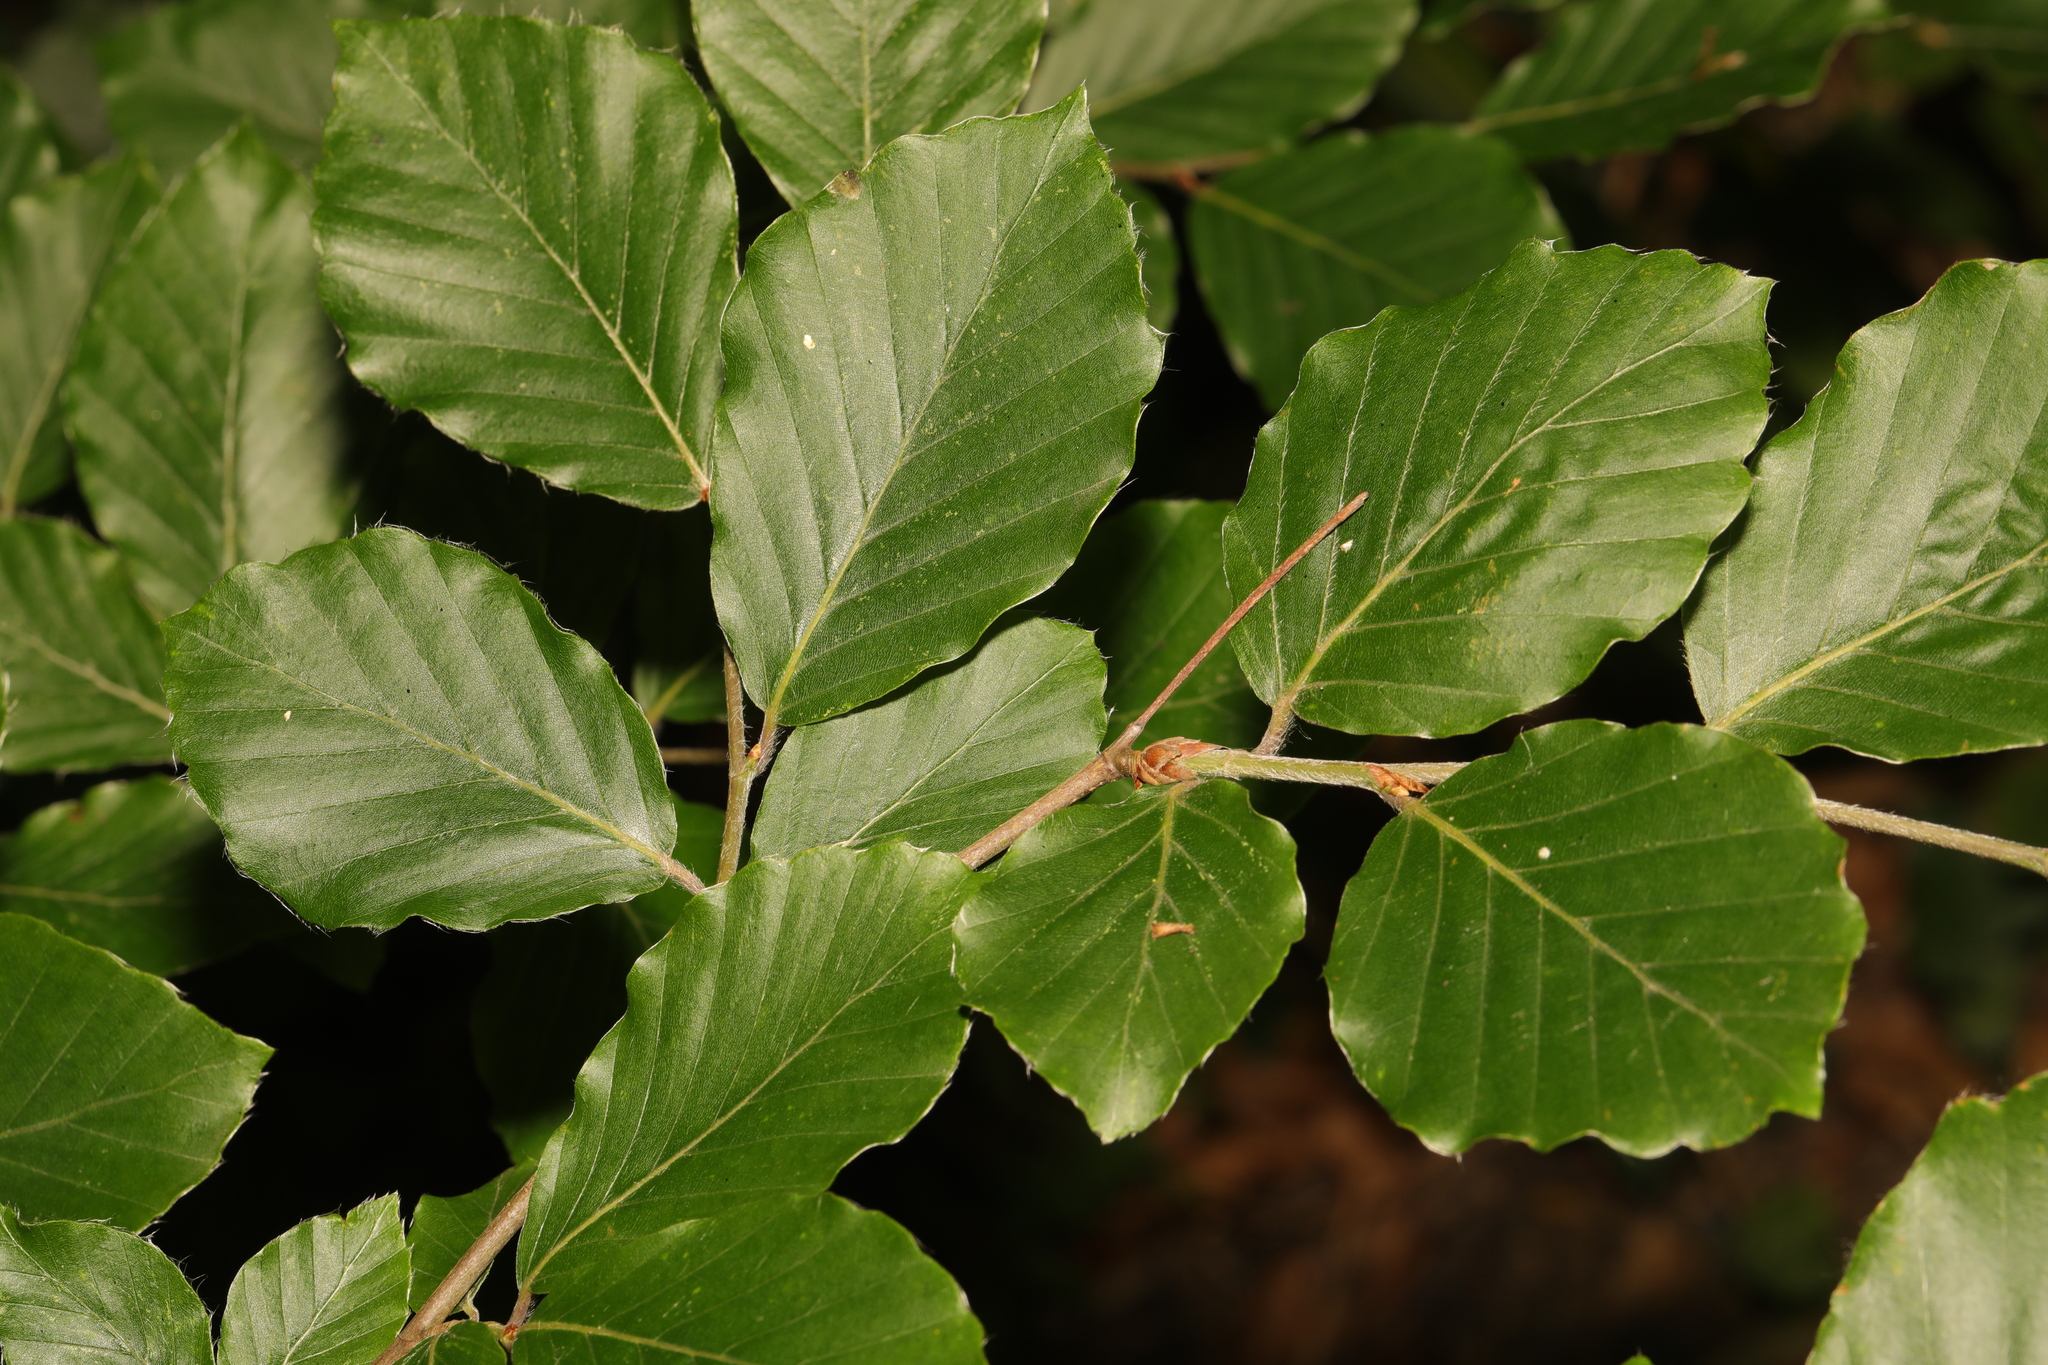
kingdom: Plantae
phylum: Tracheophyta
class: Magnoliopsida
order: Fagales
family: Fagaceae
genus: Fagus
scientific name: Fagus sylvatica
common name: Beech
